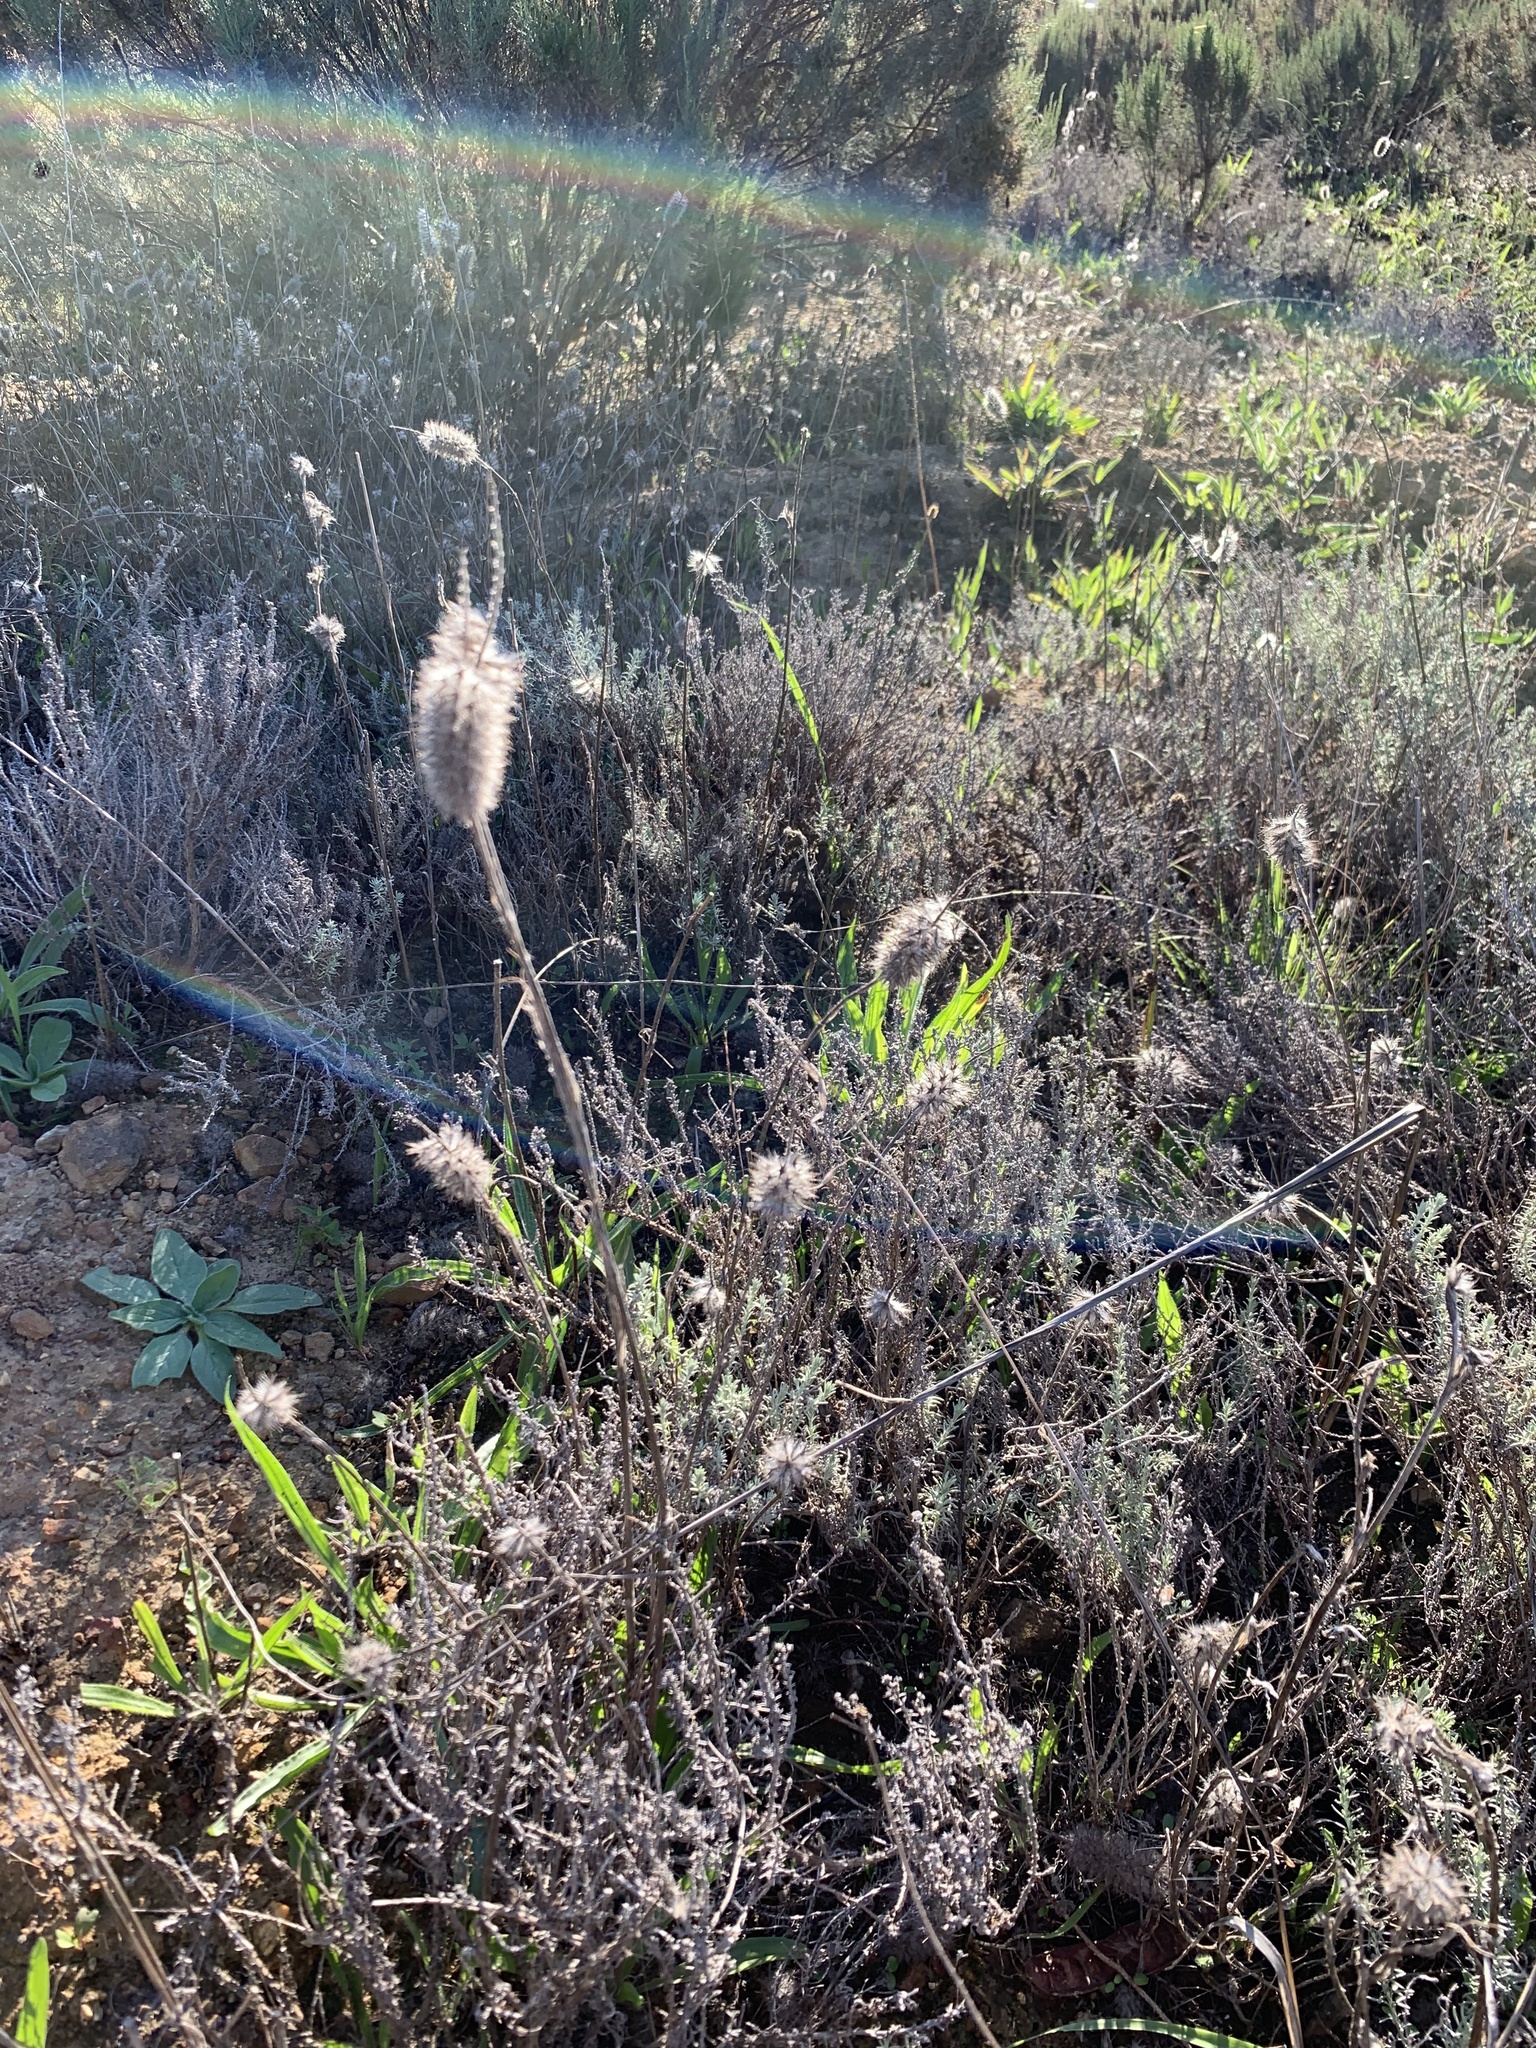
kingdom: Plantae
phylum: Tracheophyta
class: Magnoliopsida
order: Fabales
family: Fabaceae
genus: Trifolium
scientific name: Trifolium angustifolium
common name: Narrow clover
